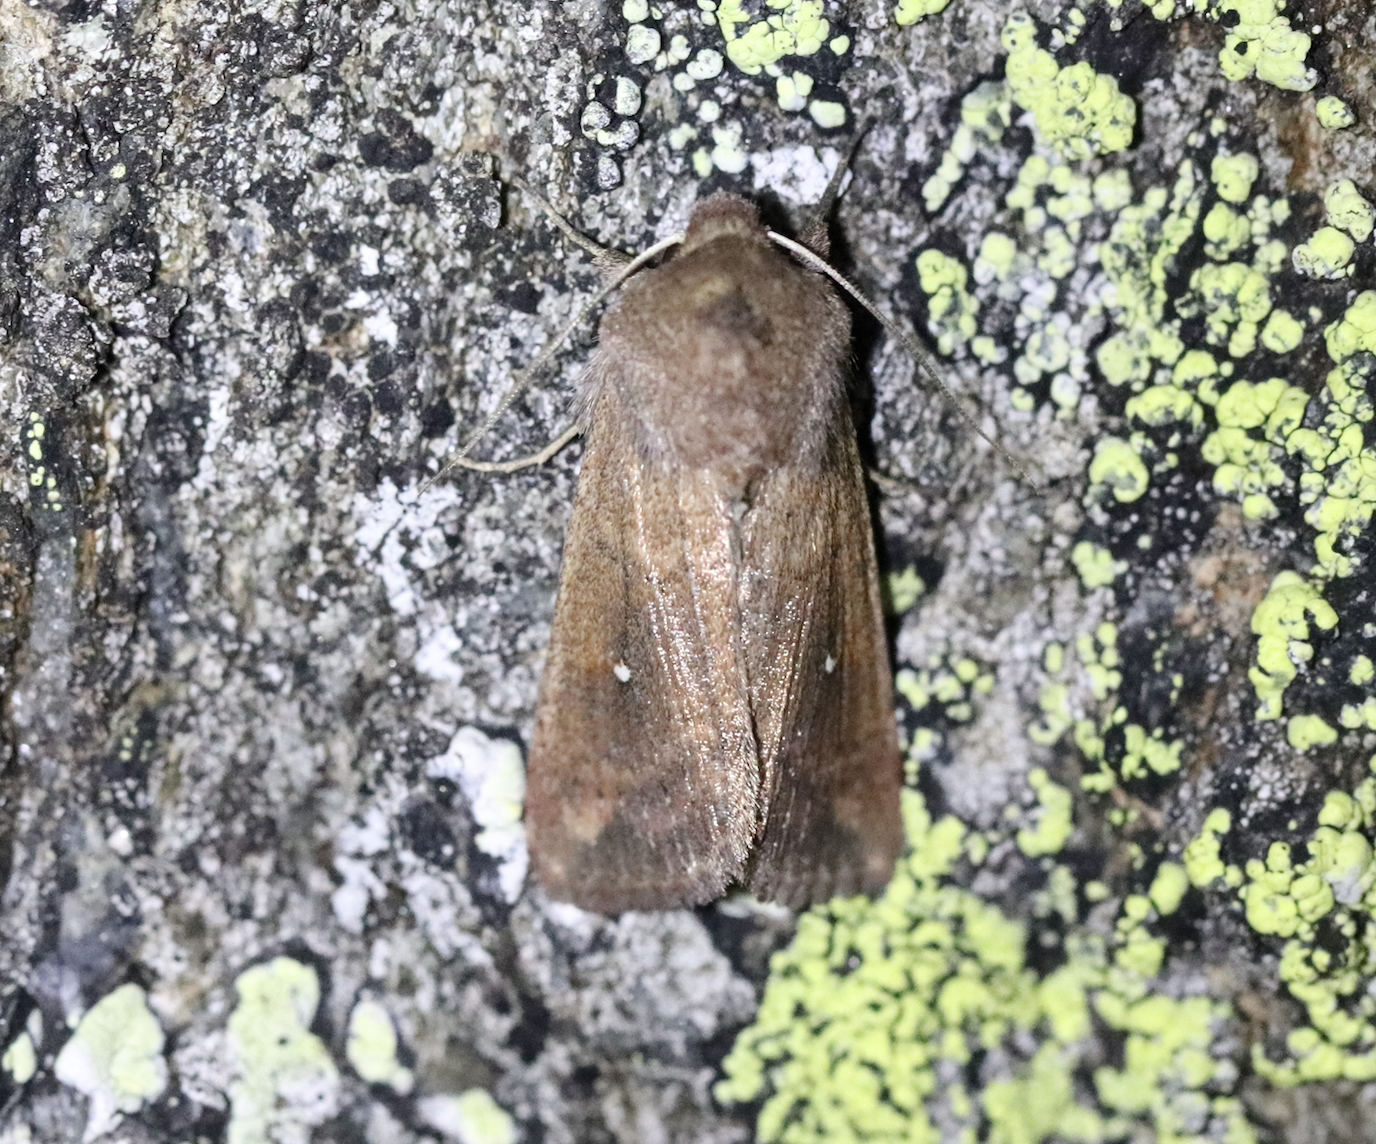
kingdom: Animalia
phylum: Arthropoda
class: Insecta
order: Lepidoptera
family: Noctuidae
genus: Mythimna
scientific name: Mythimna albipuncta
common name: White-point
